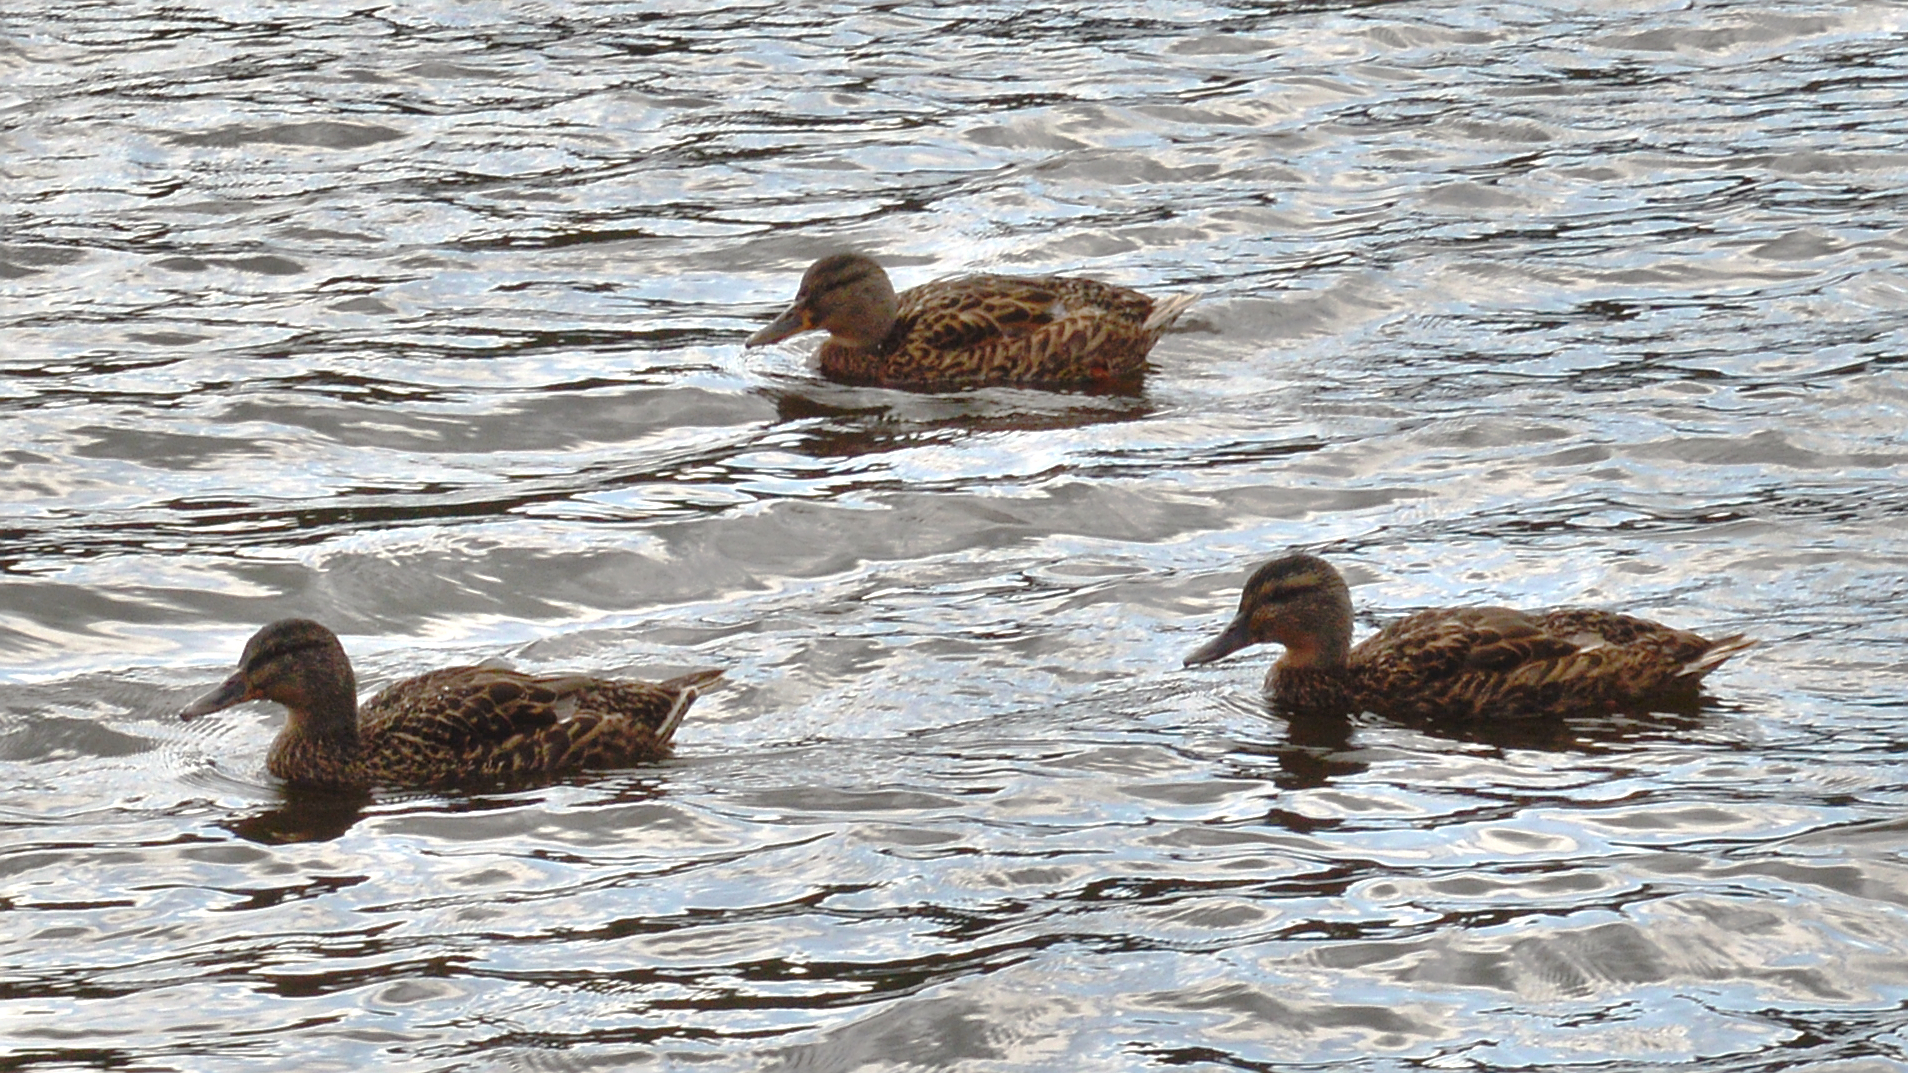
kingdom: Animalia
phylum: Chordata
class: Aves
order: Anseriformes
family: Anatidae
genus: Anas
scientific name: Anas platyrhynchos
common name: Mallard
